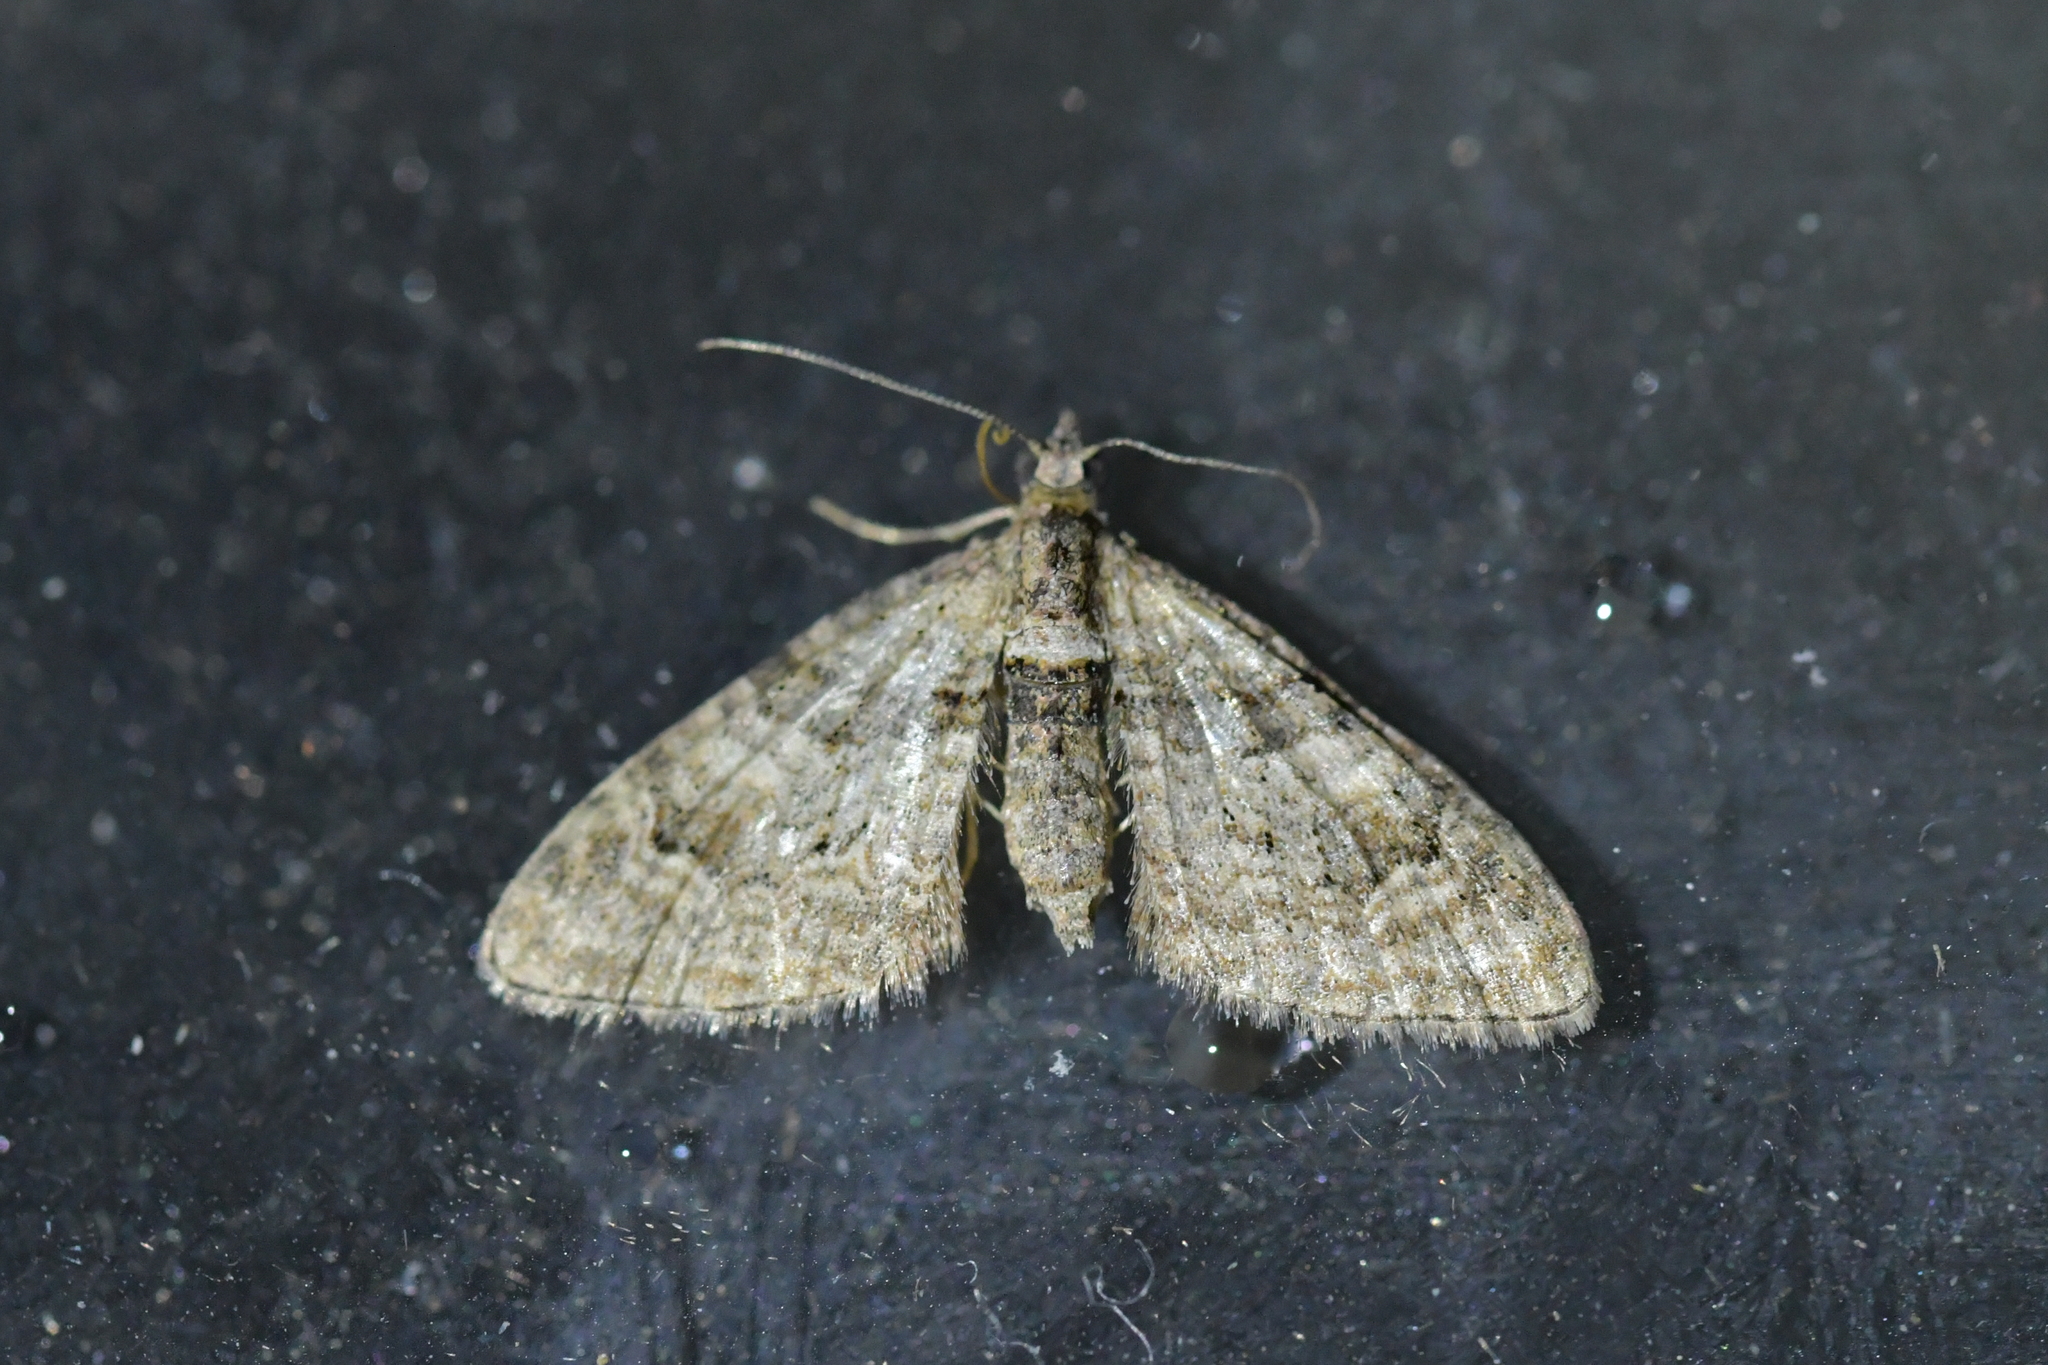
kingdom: Animalia
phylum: Arthropoda
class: Insecta
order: Lepidoptera
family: Geometridae
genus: Phrissogonus
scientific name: Phrissogonus laticostata
